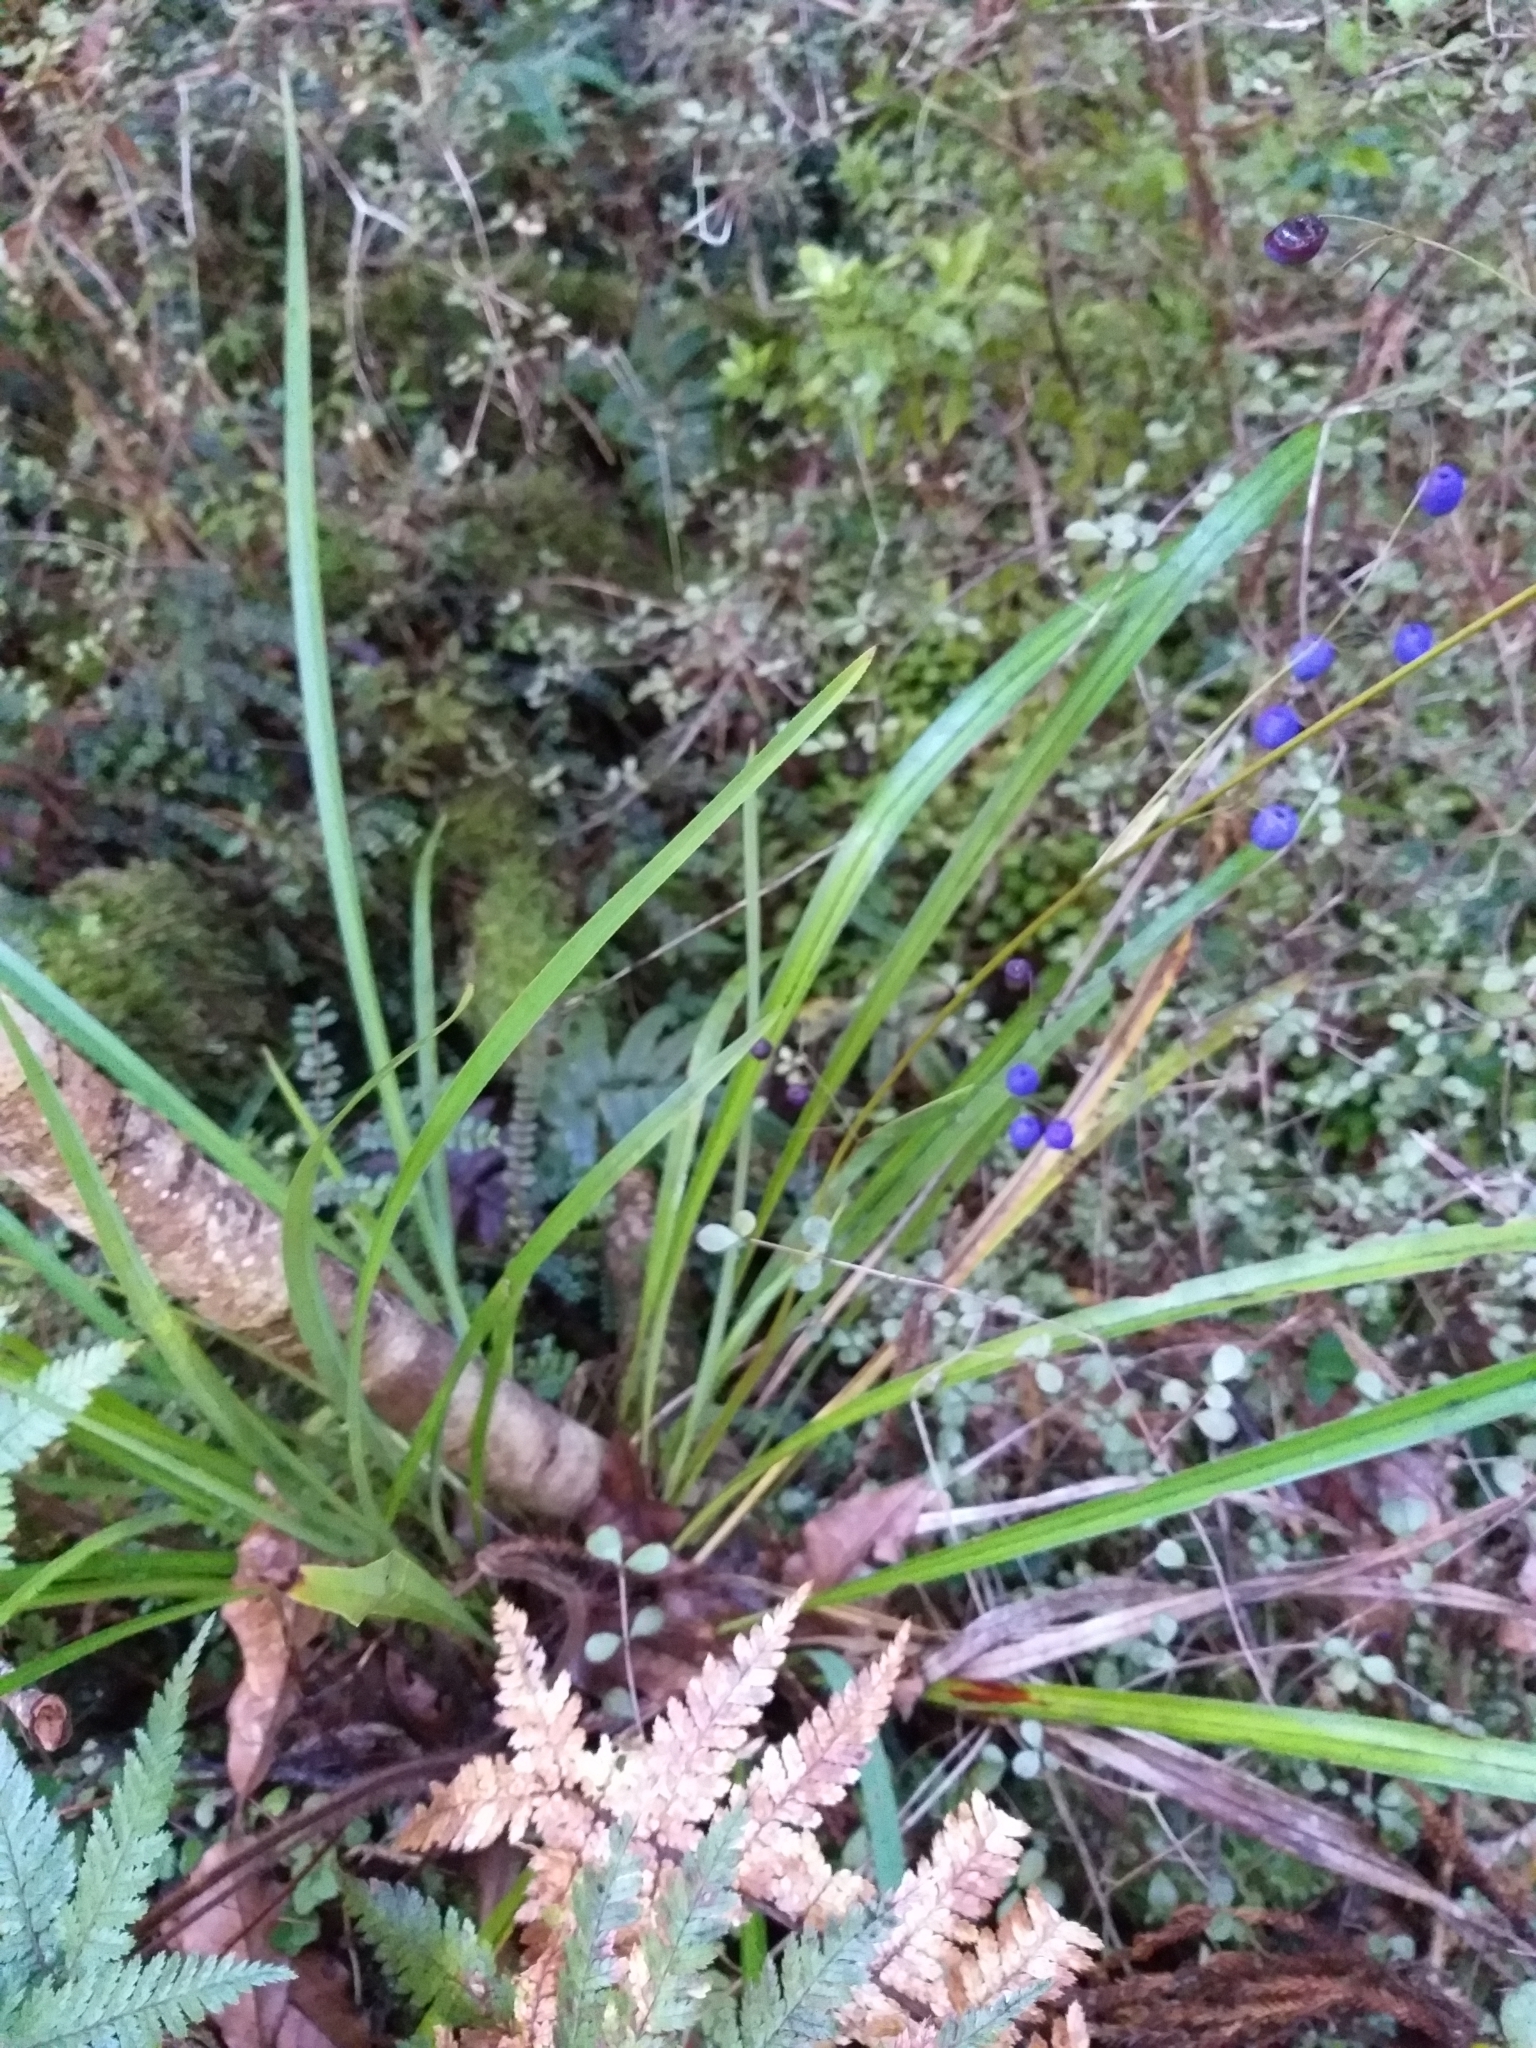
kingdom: Plantae
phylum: Tracheophyta
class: Liliopsida
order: Asparagales
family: Asphodelaceae
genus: Dianella
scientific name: Dianella nigra
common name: New zealand-blueberry
